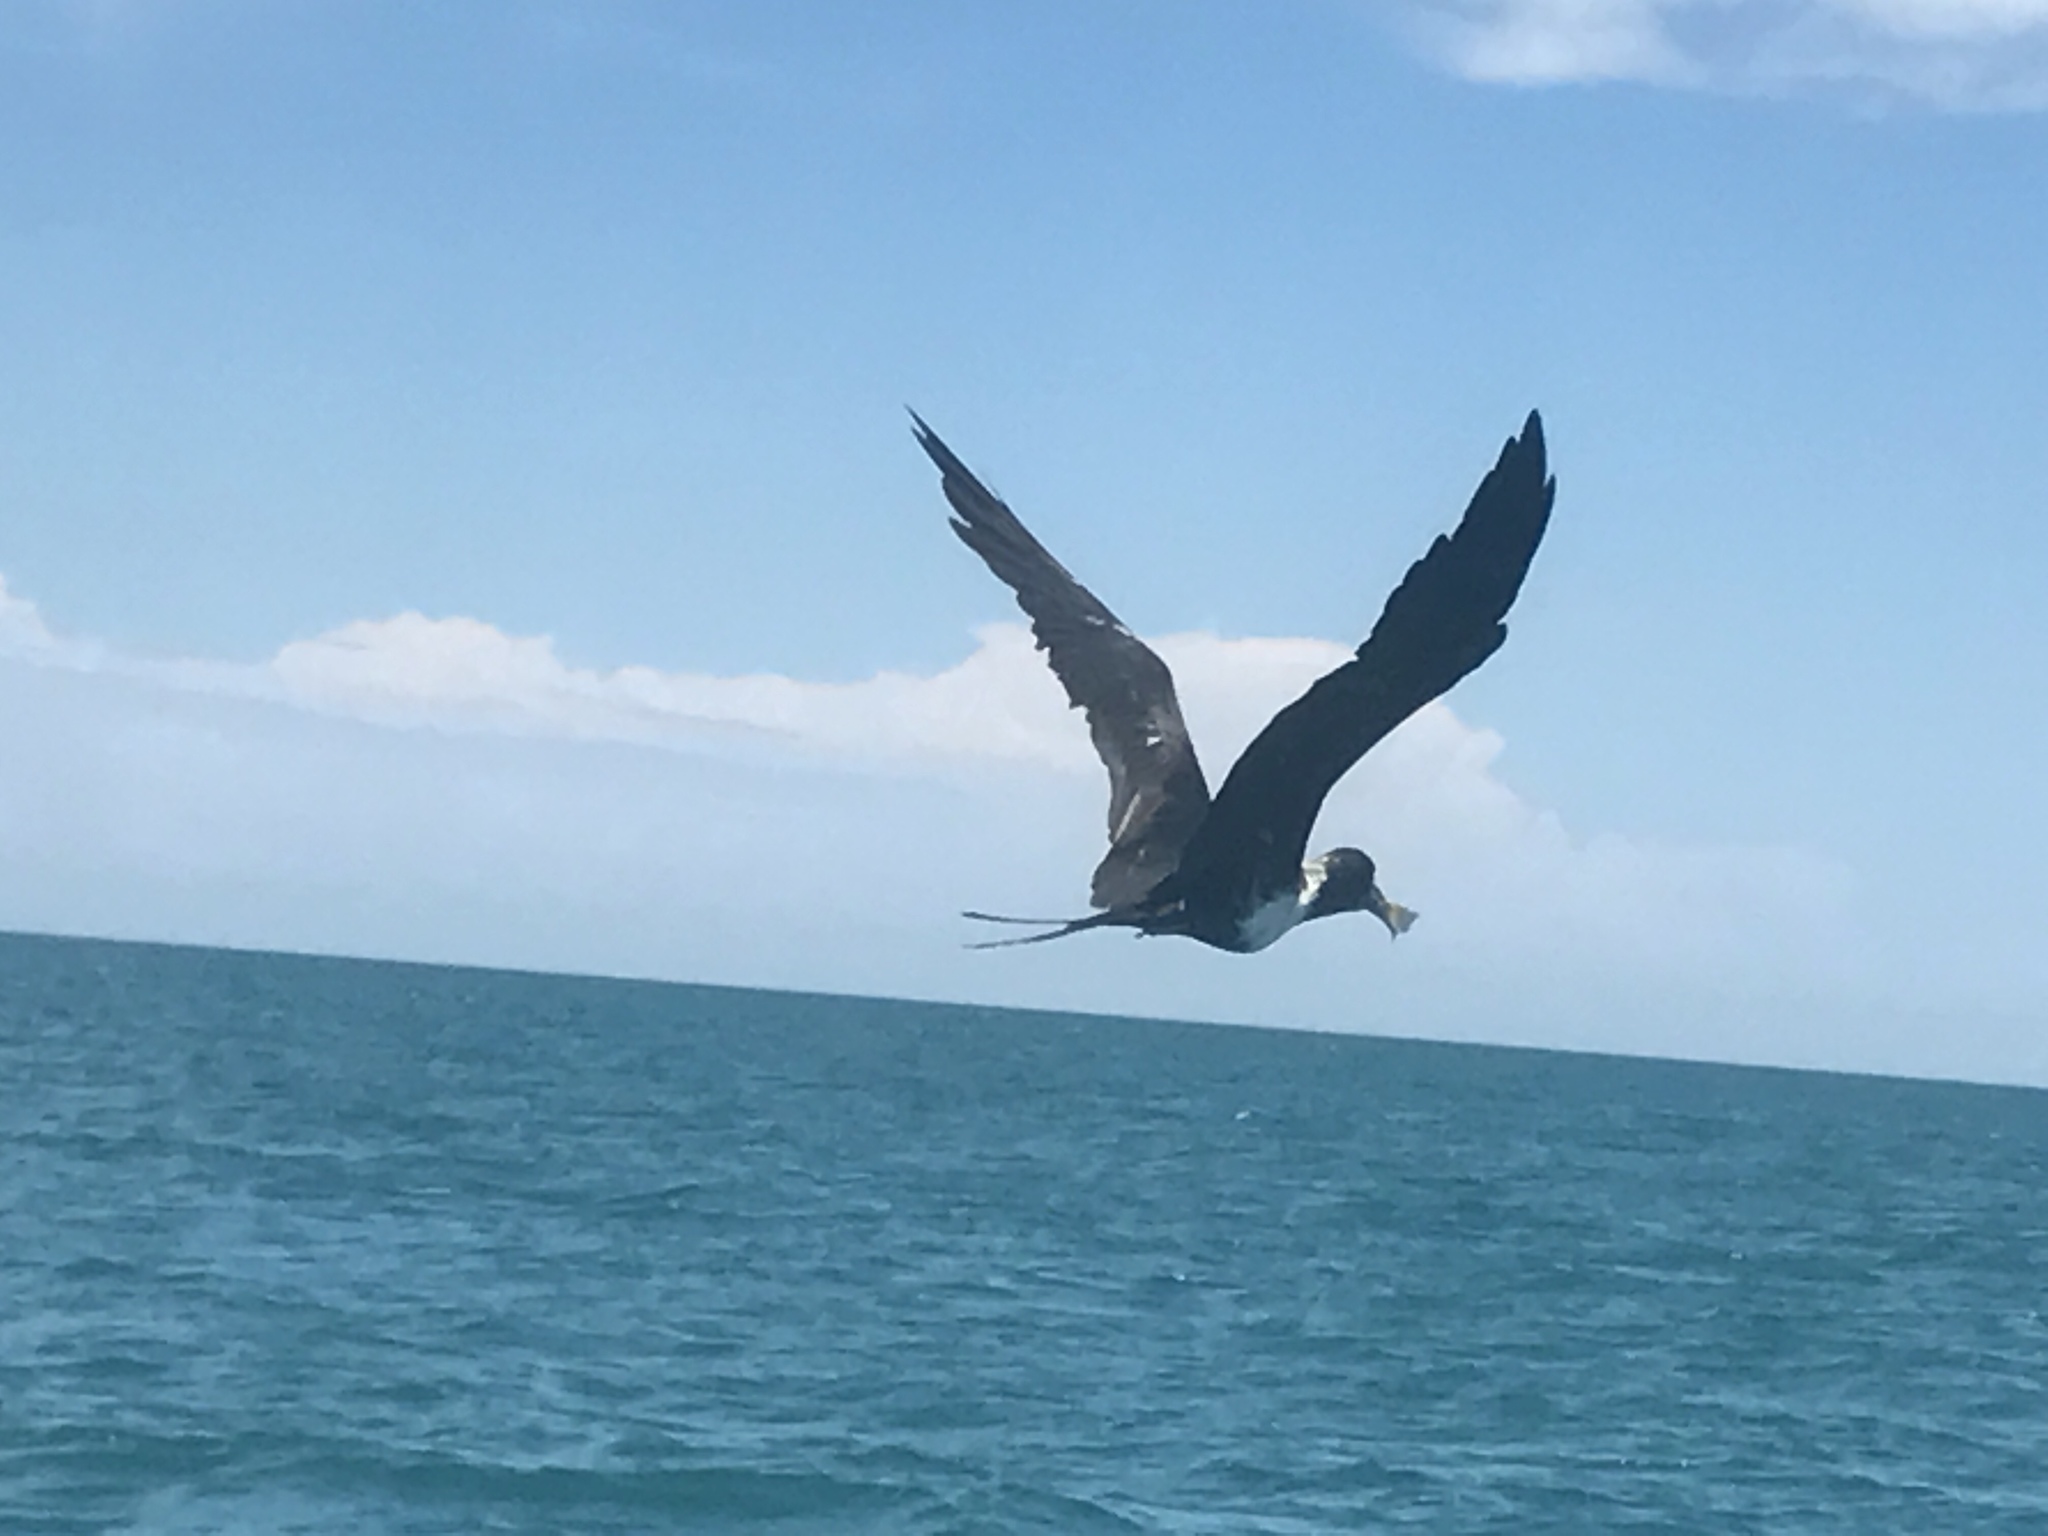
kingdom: Animalia
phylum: Chordata
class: Aves
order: Suliformes
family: Fregatidae
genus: Fregata
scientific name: Fregata magnificens
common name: Magnificent frigatebird
